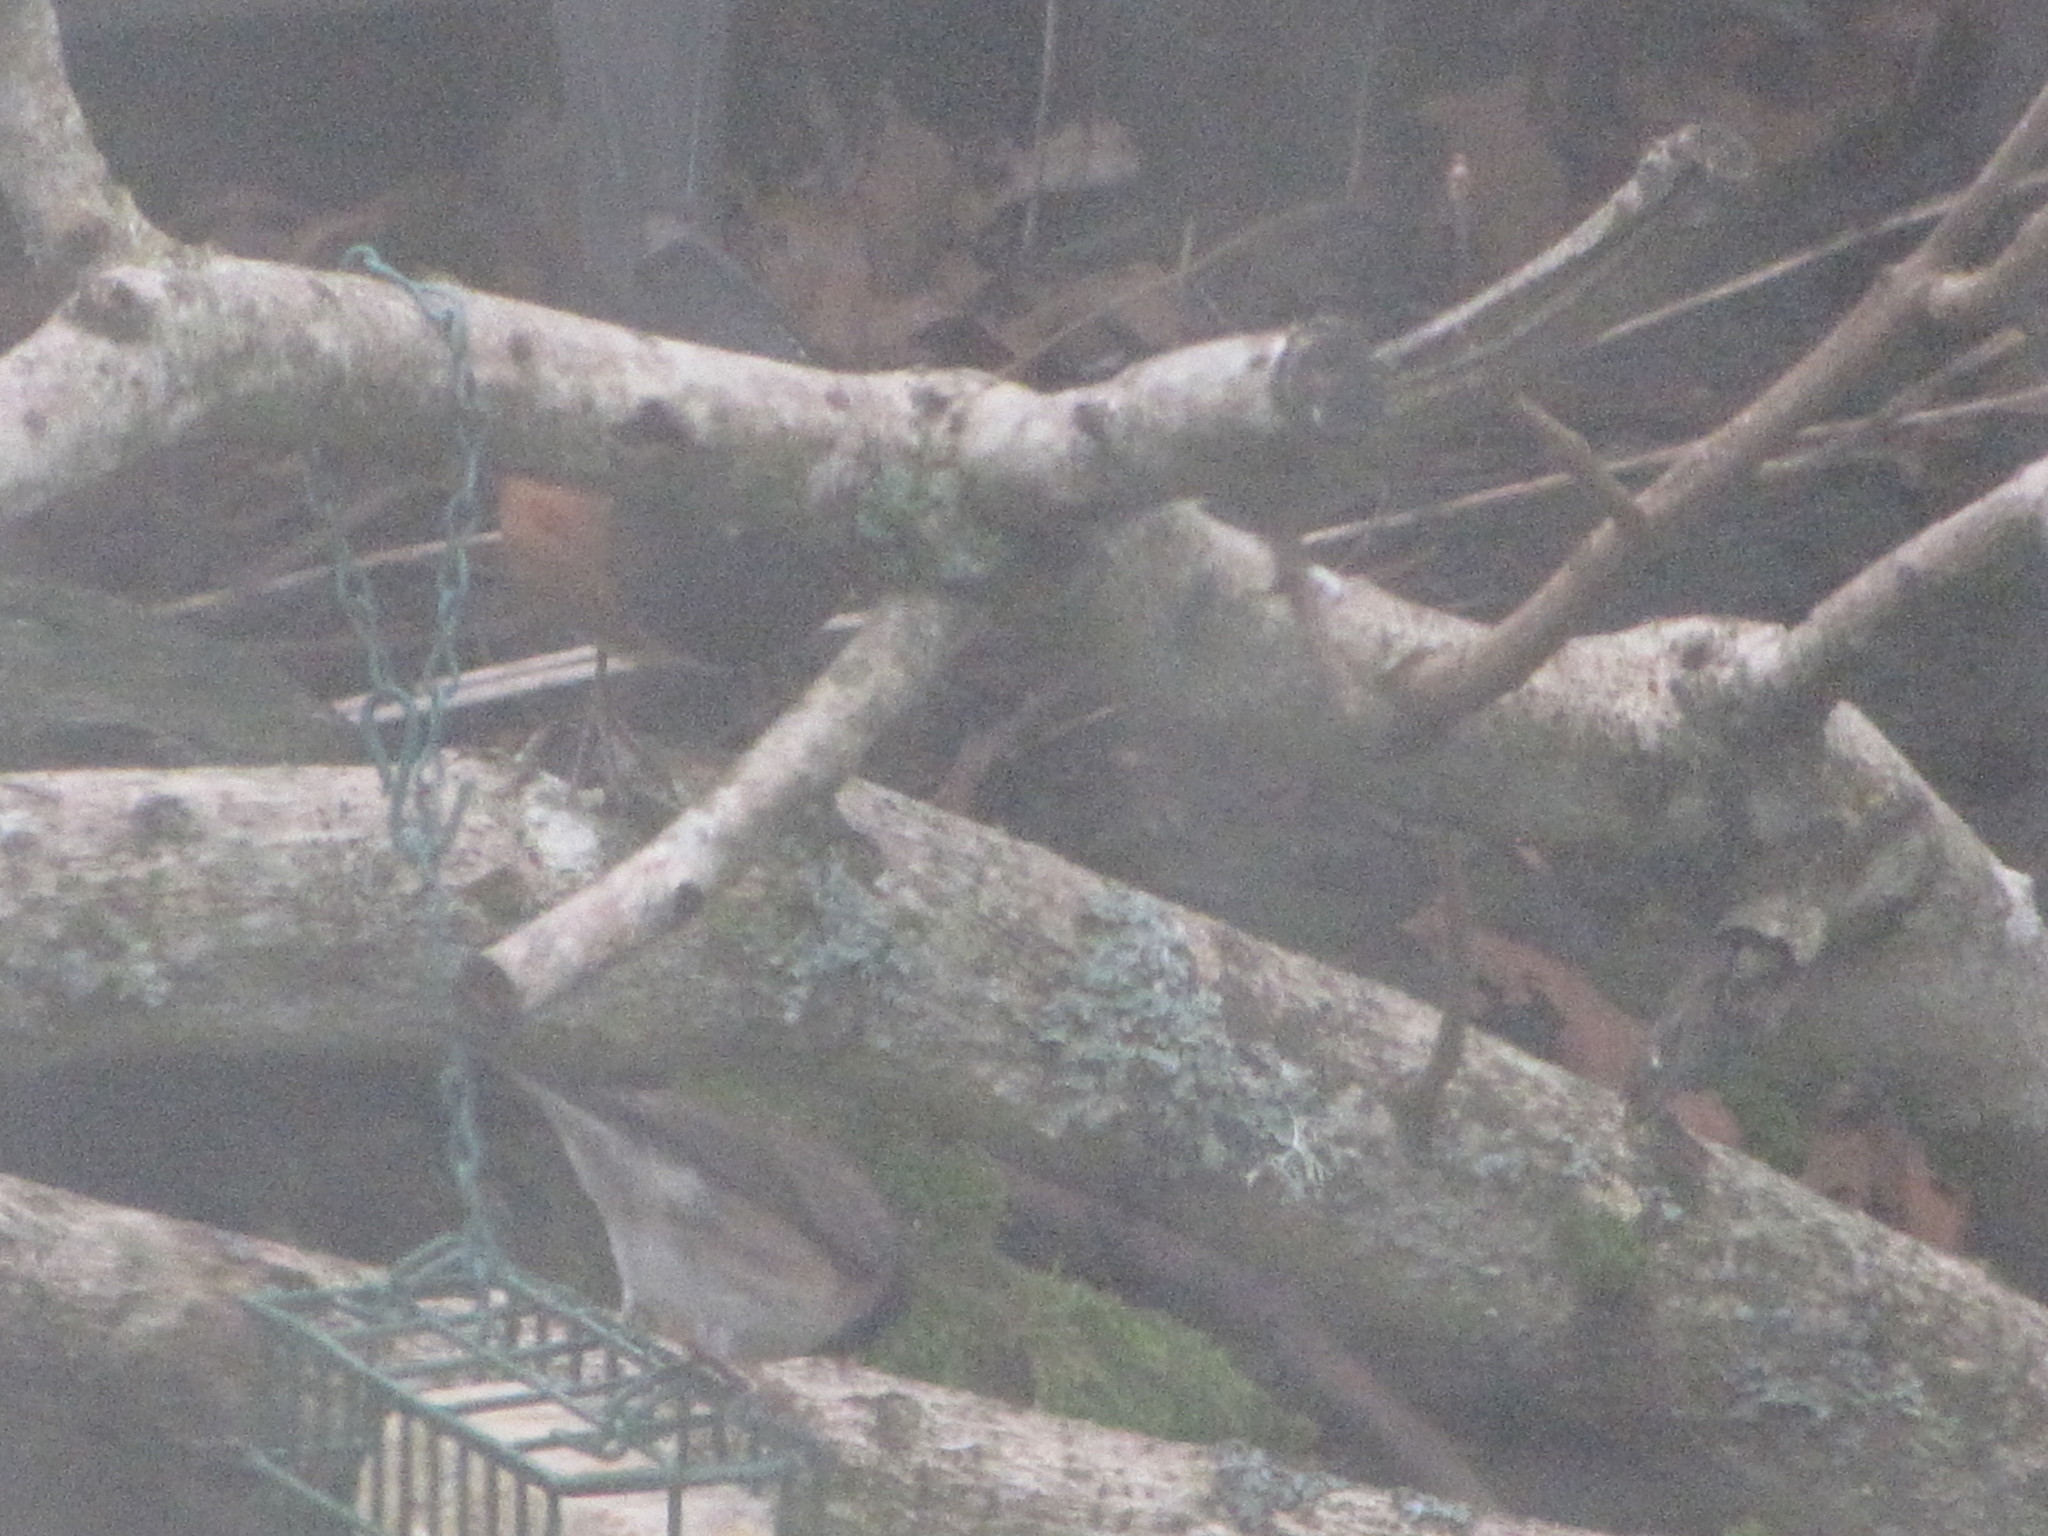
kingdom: Animalia
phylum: Chordata
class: Aves
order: Passeriformes
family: Passerellidae
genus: Pipilo
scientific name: Pipilo maculatus
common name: Spotted towhee
